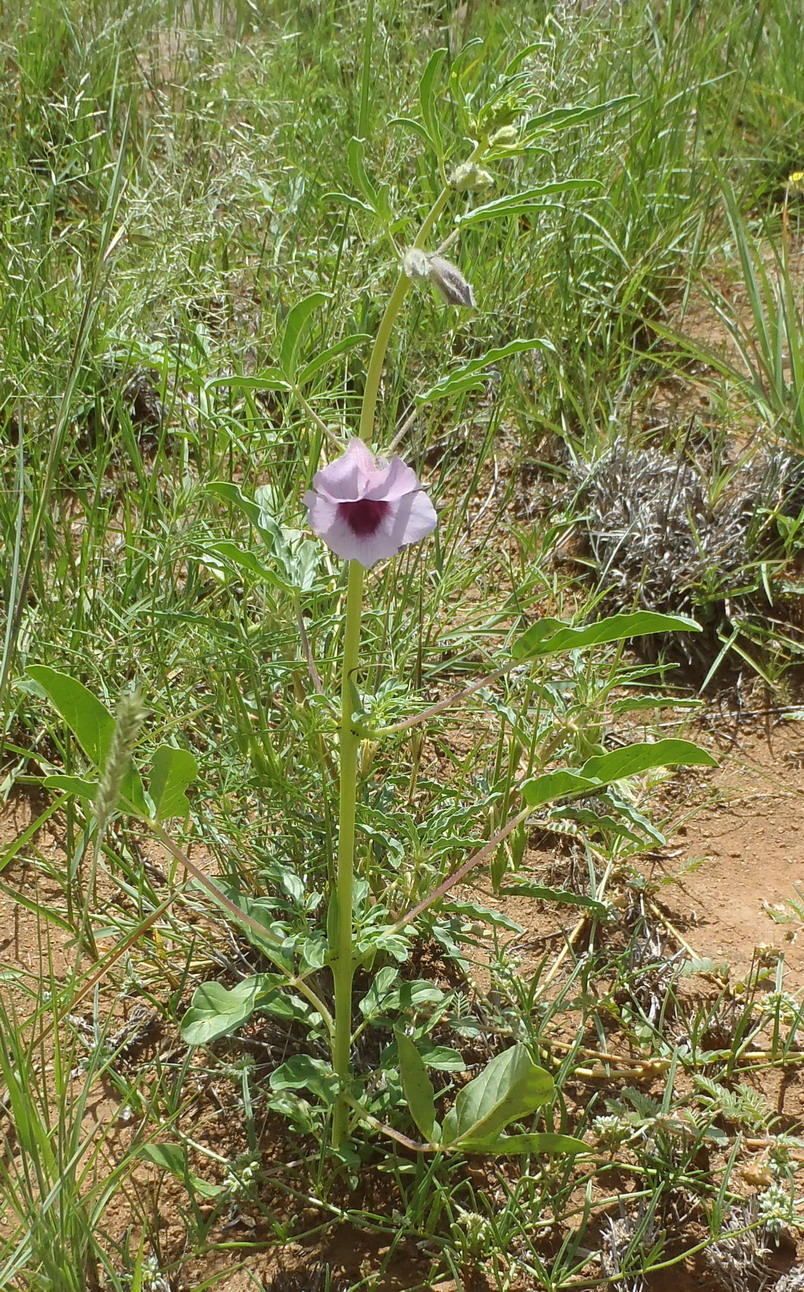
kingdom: Plantae
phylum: Tracheophyta
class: Magnoliopsida
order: Lamiales
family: Pedaliaceae
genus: Sesamum
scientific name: Sesamum triphyllum
